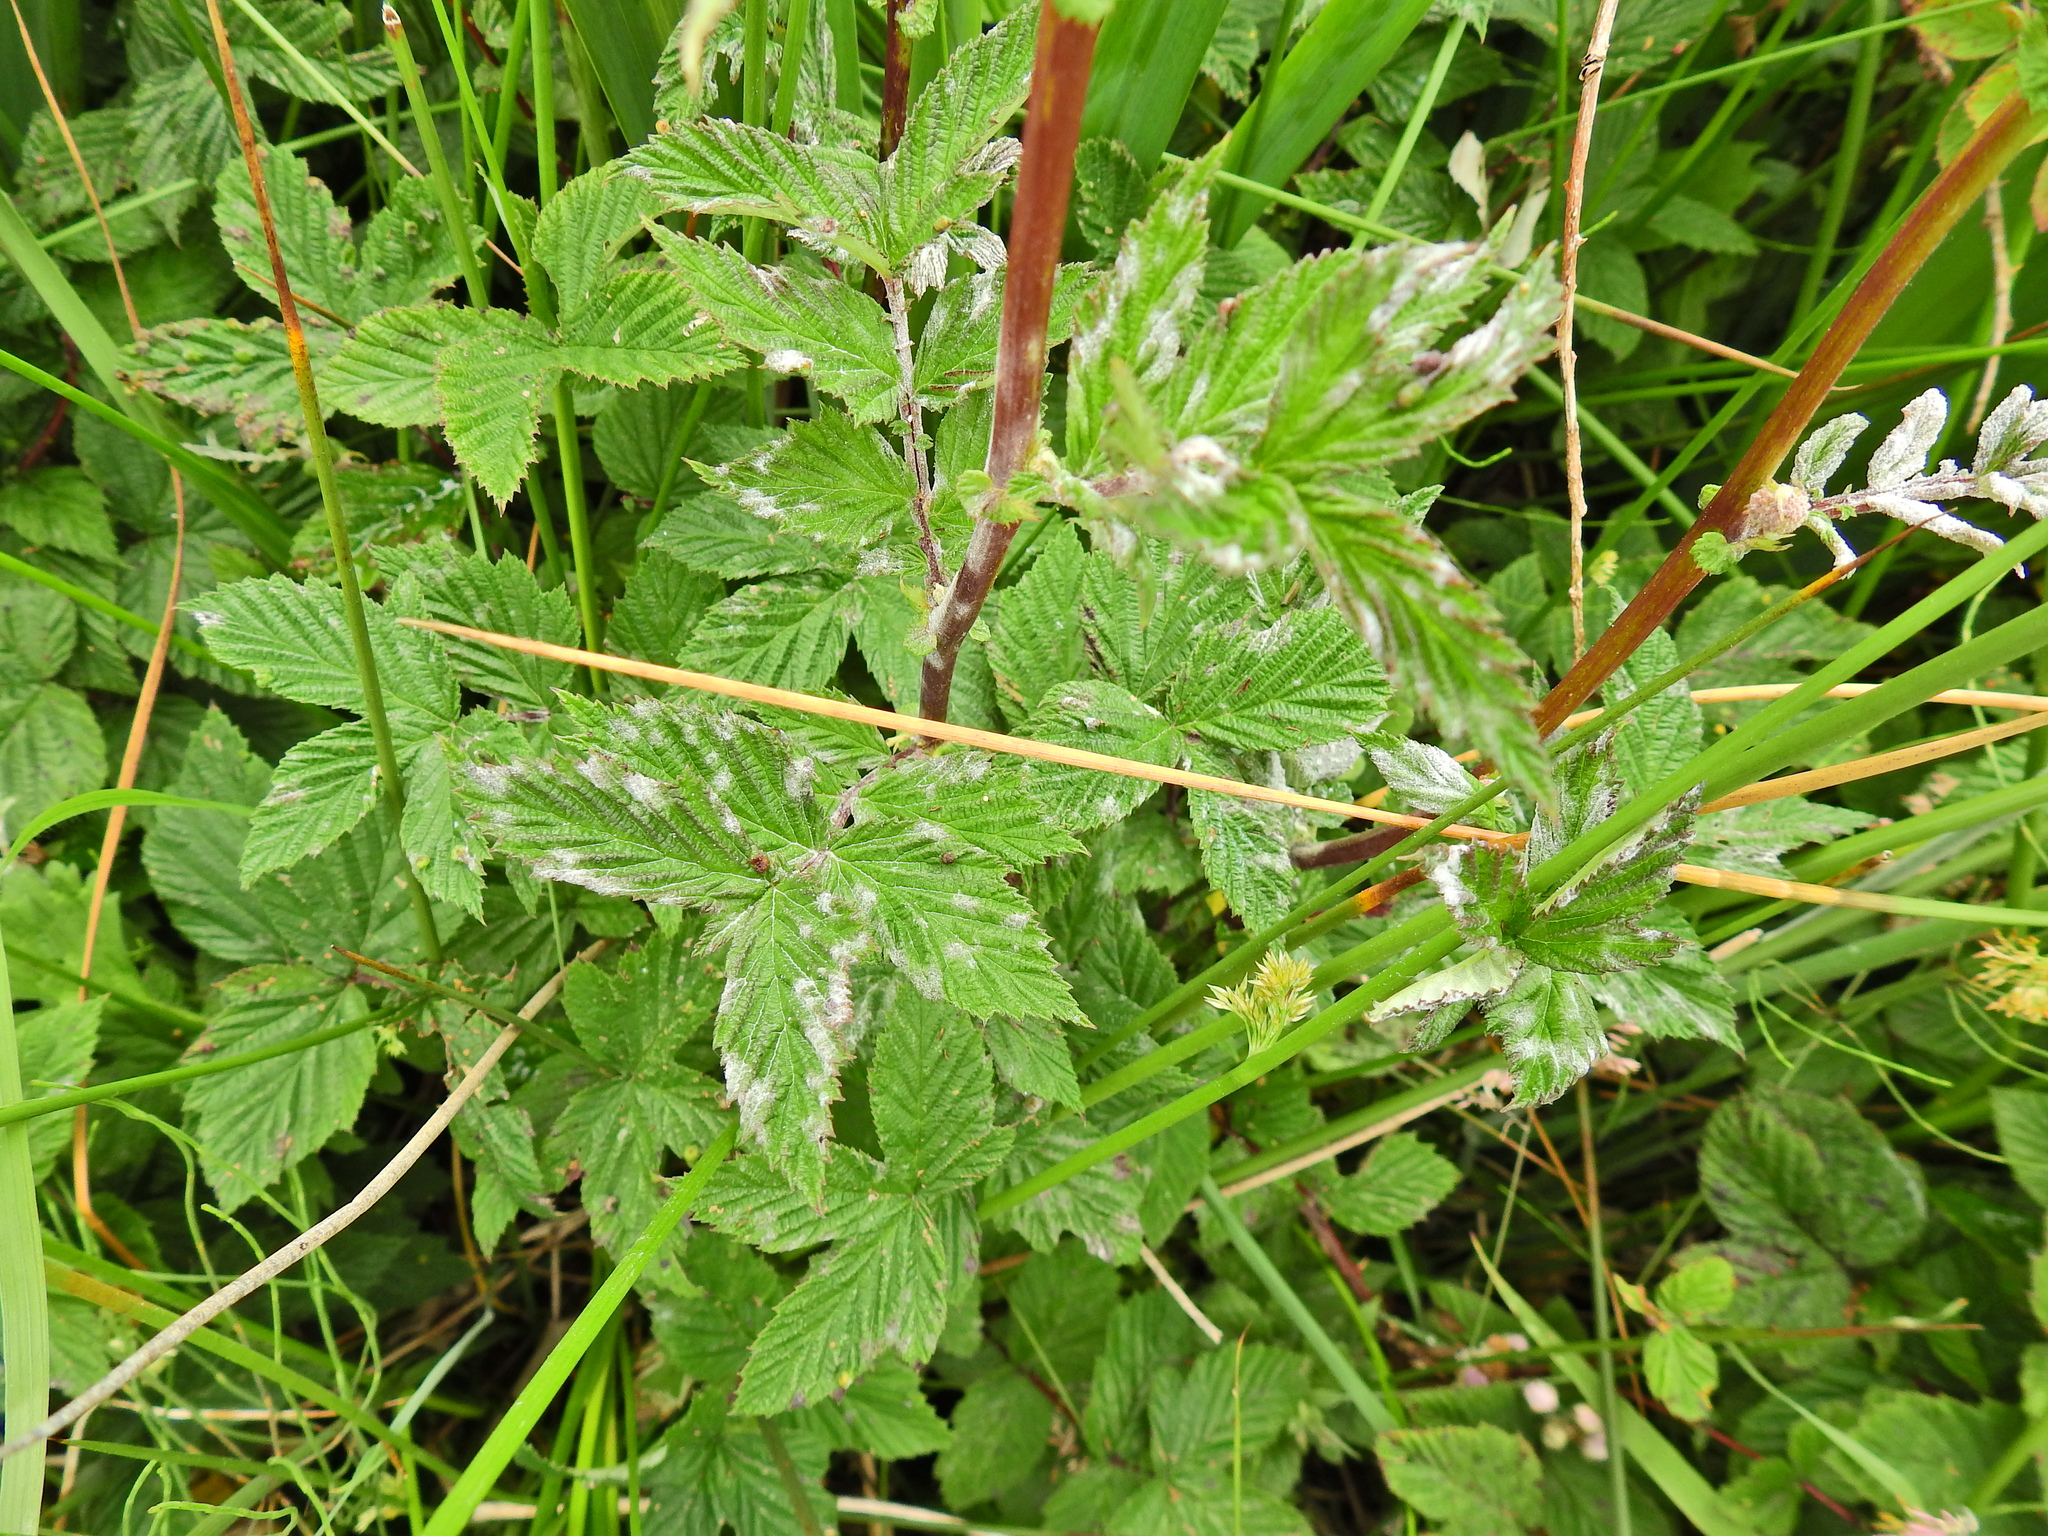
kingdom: Fungi
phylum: Ascomycota
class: Leotiomycetes
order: Helotiales
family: Erysiphaceae
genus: Podosphaera
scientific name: Podosphaera filipendulae
